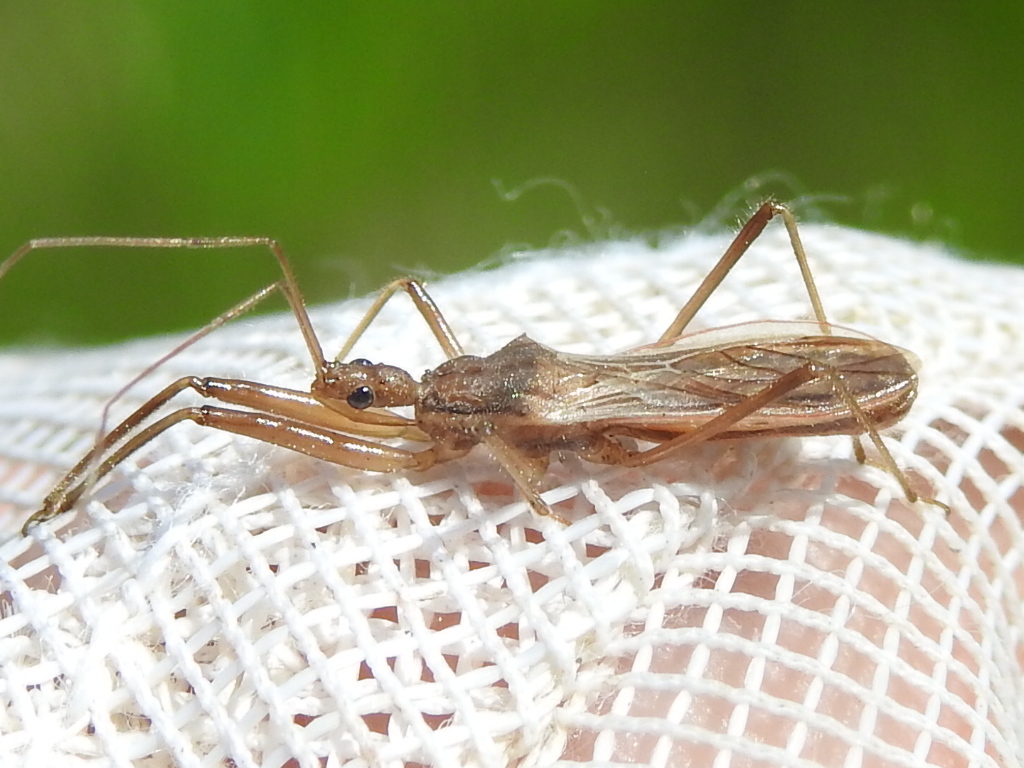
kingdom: Animalia
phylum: Arthropoda
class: Insecta
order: Hemiptera
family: Reduviidae
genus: Fitchia
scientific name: Fitchia
